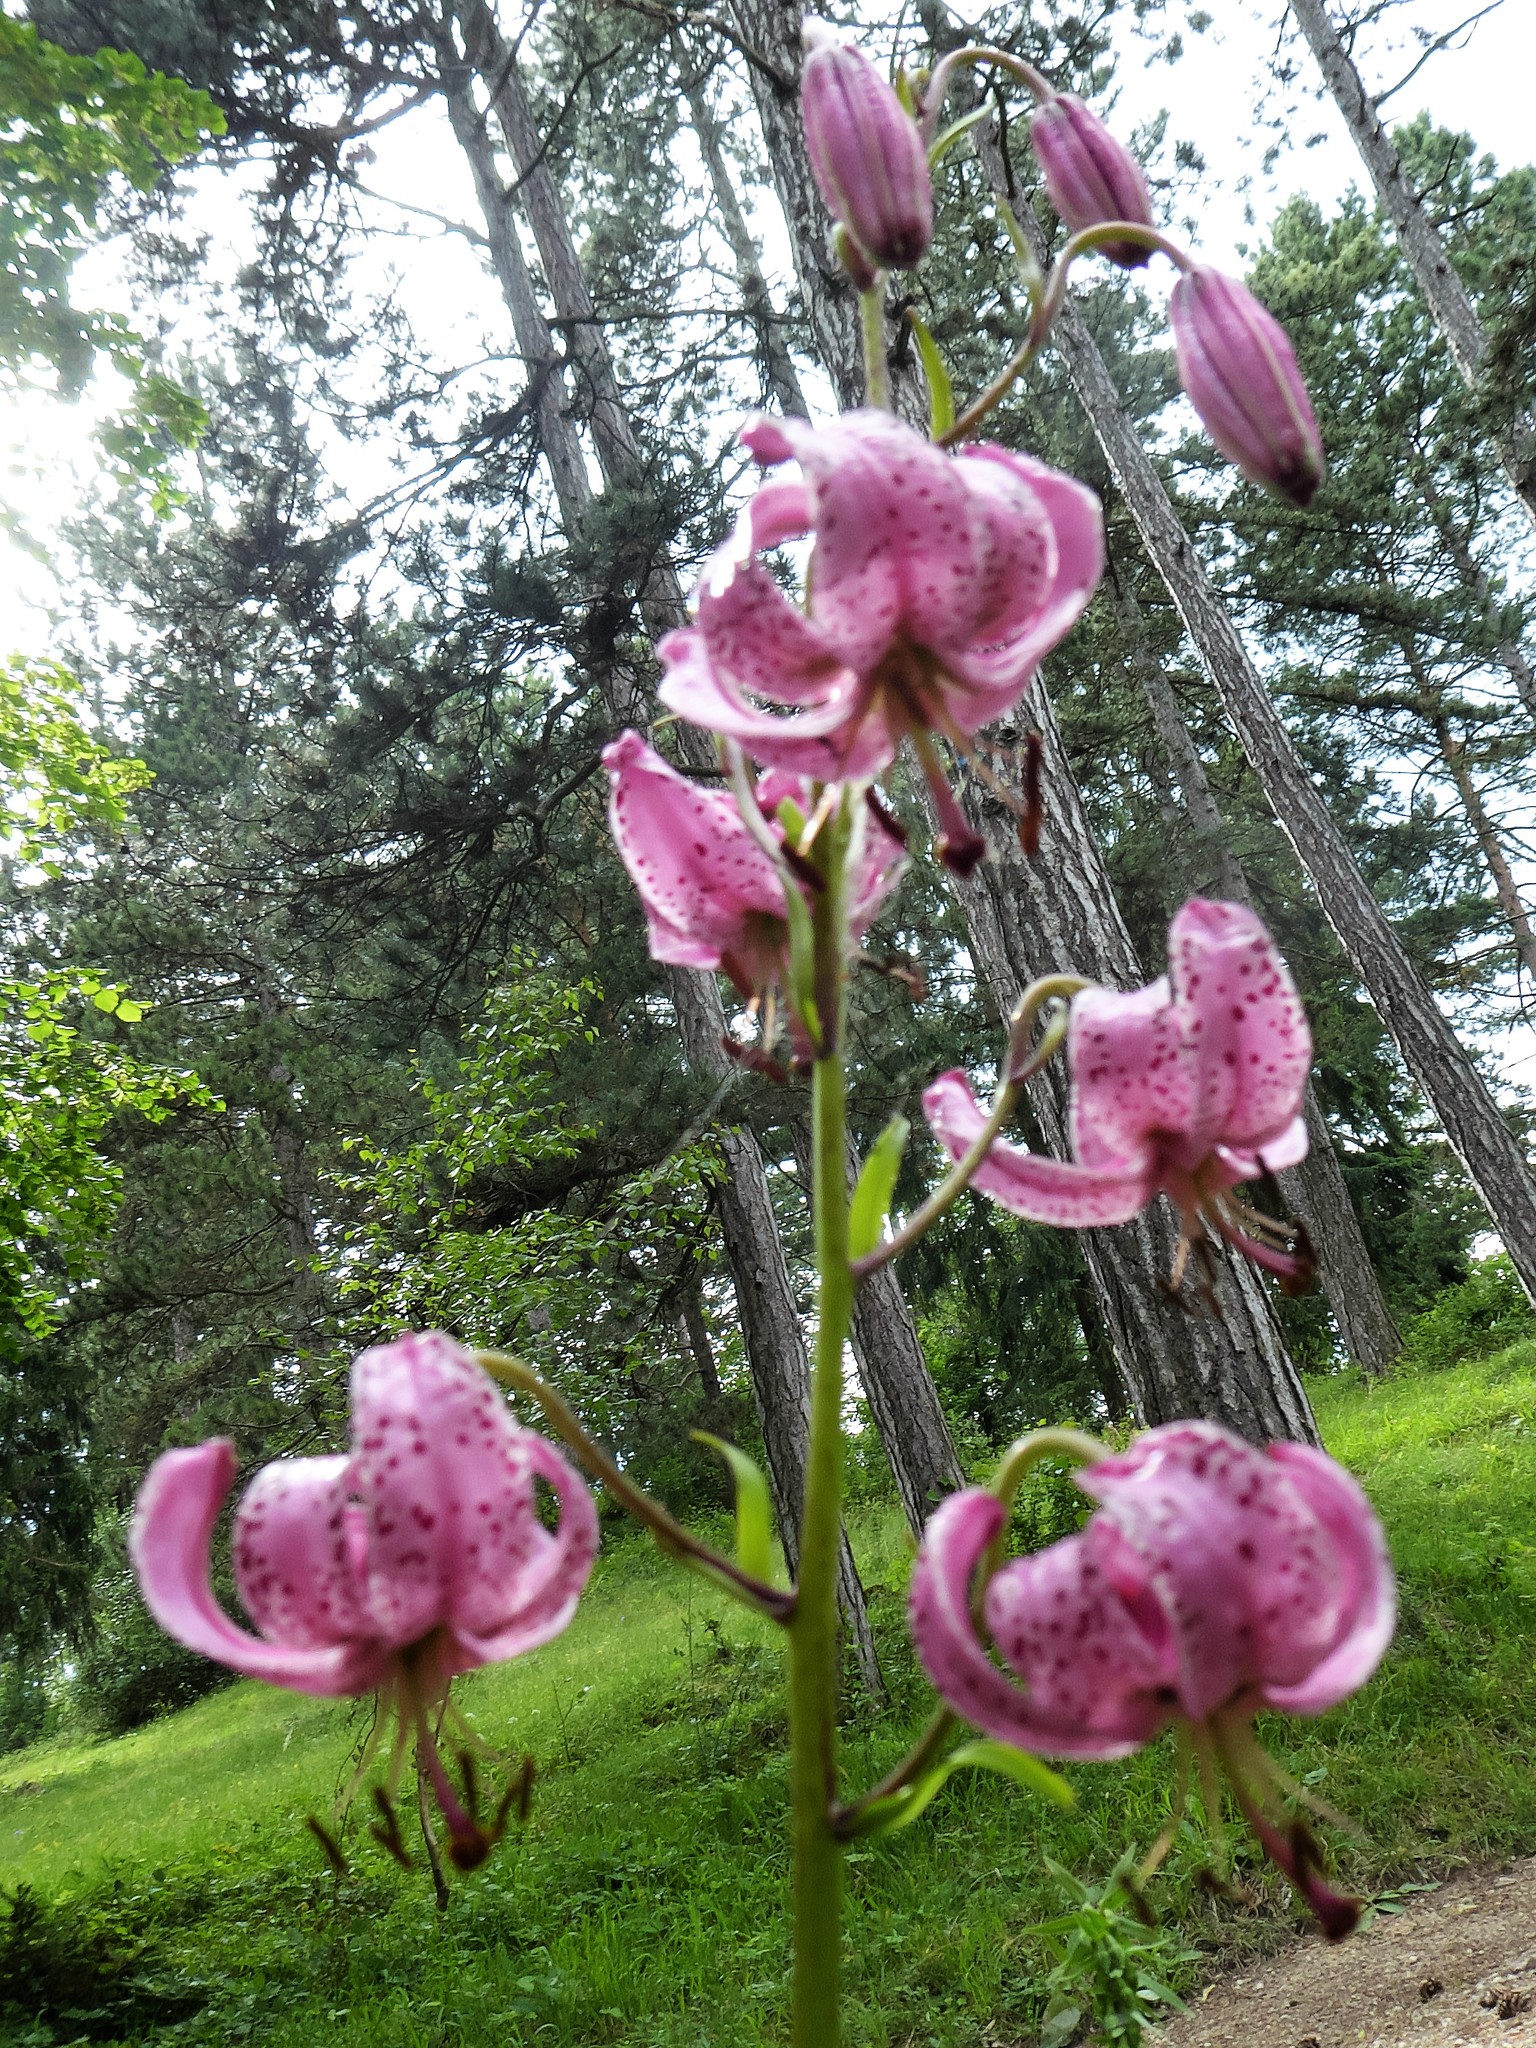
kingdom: Plantae
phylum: Tracheophyta
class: Liliopsida
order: Liliales
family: Liliaceae
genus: Lilium
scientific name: Lilium martagon
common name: Martagon lily
